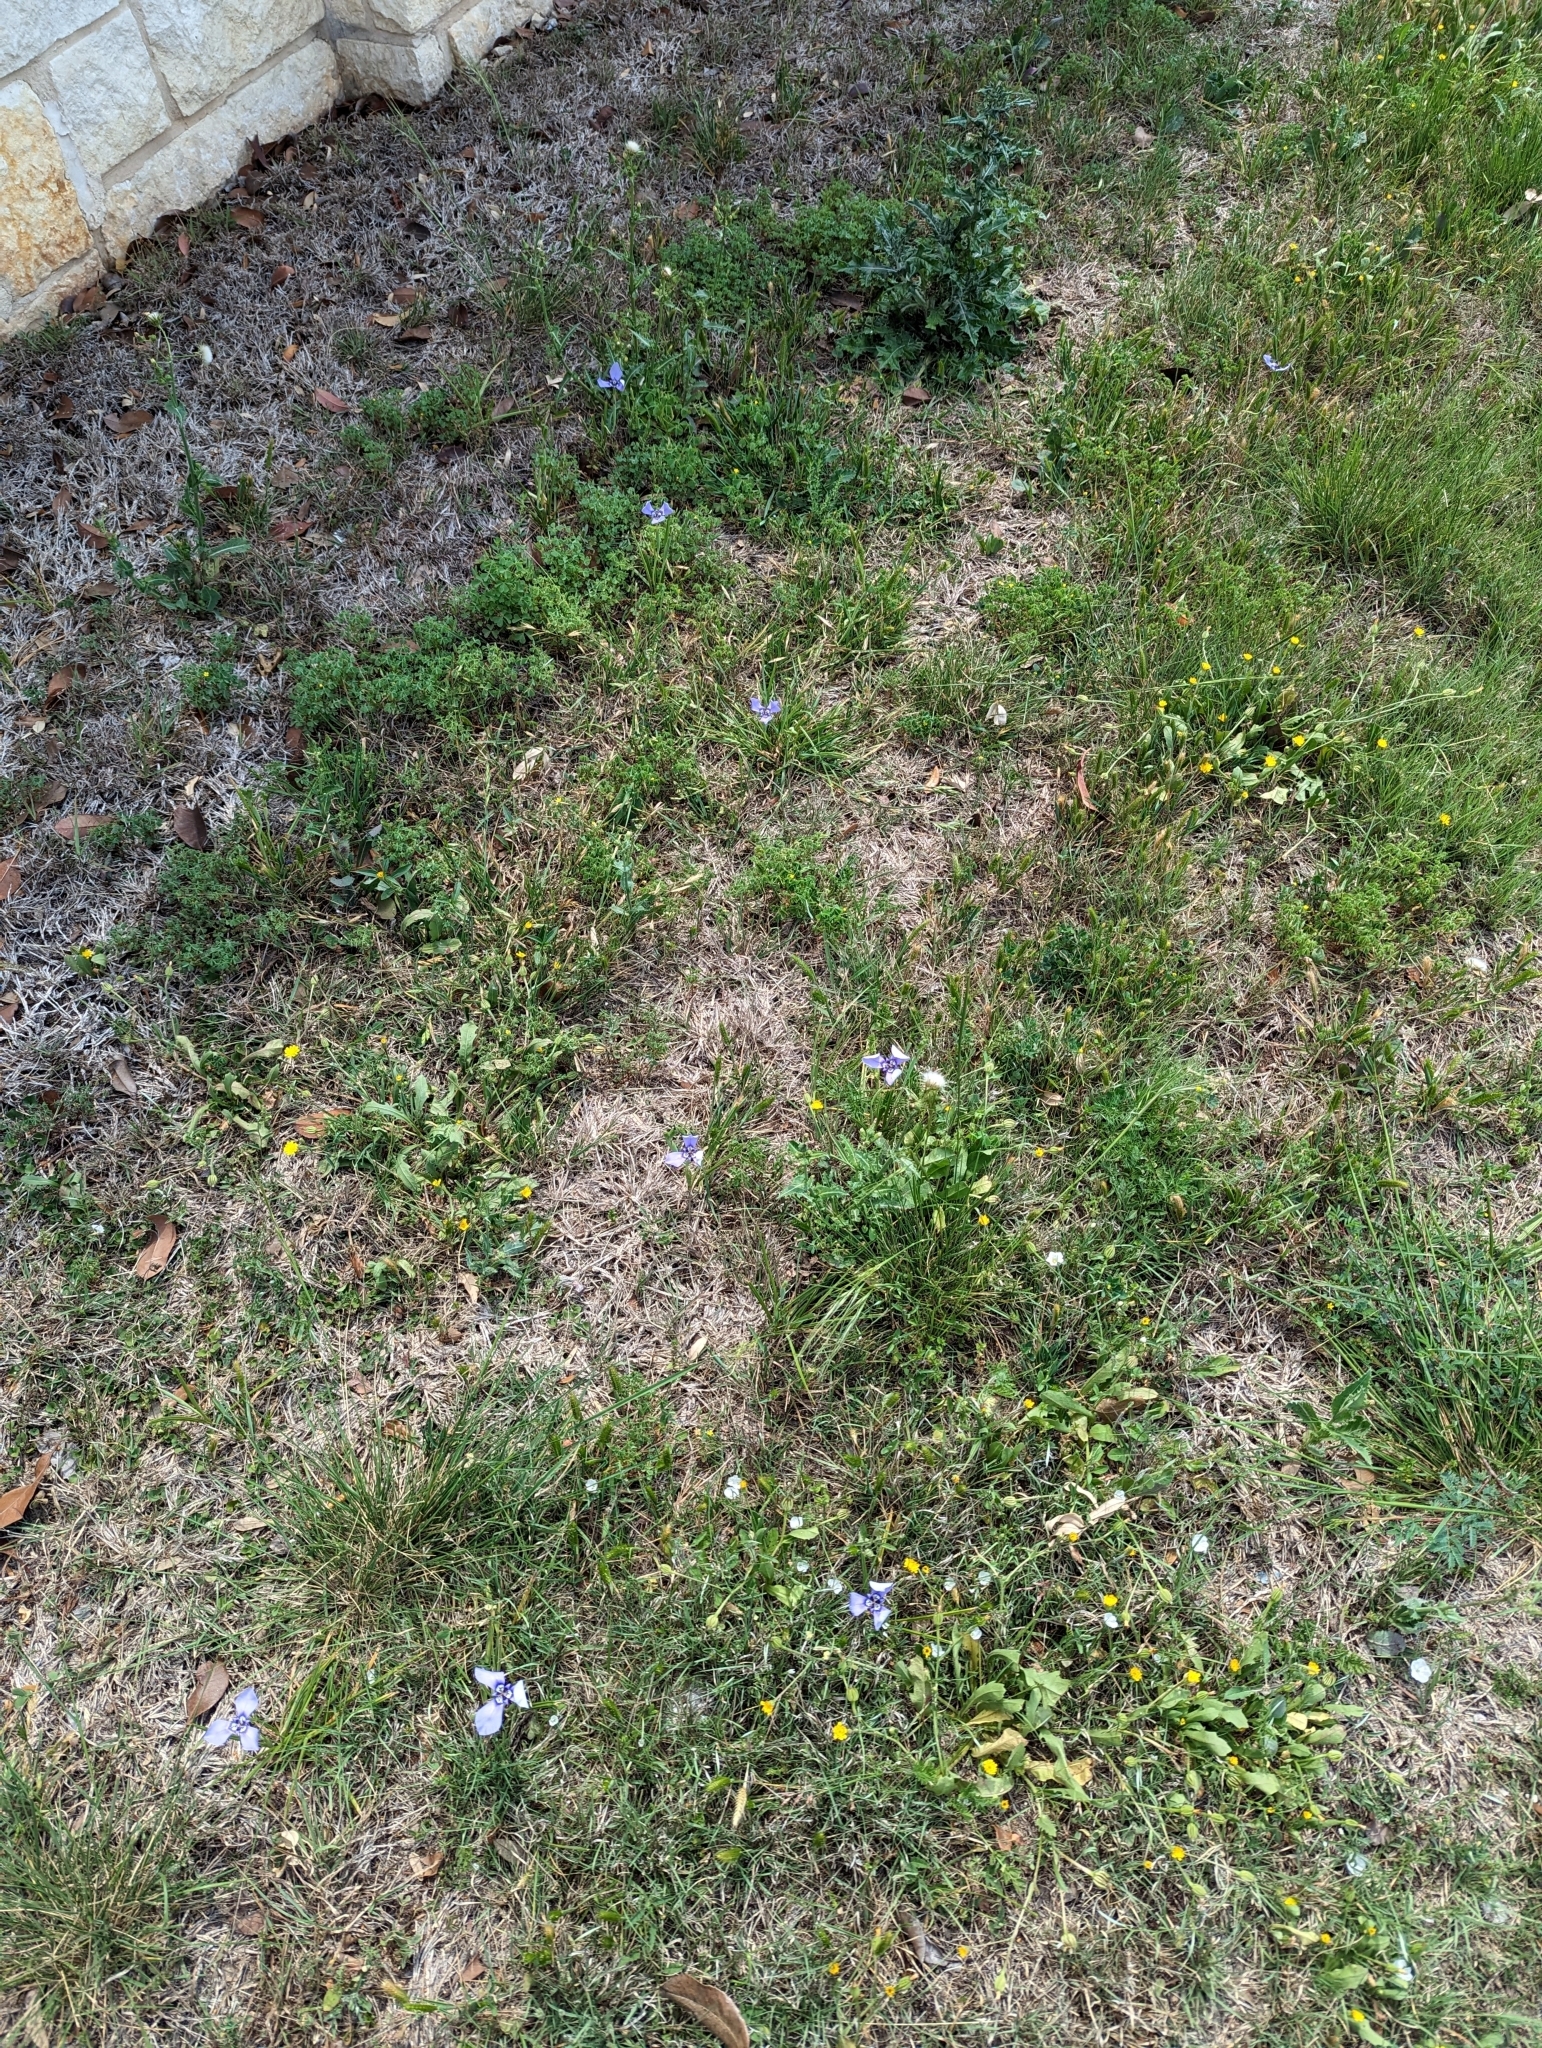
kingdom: Plantae
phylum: Tracheophyta
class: Liliopsida
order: Asparagales
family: Iridaceae
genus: Herbertia
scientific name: Herbertia lahue
